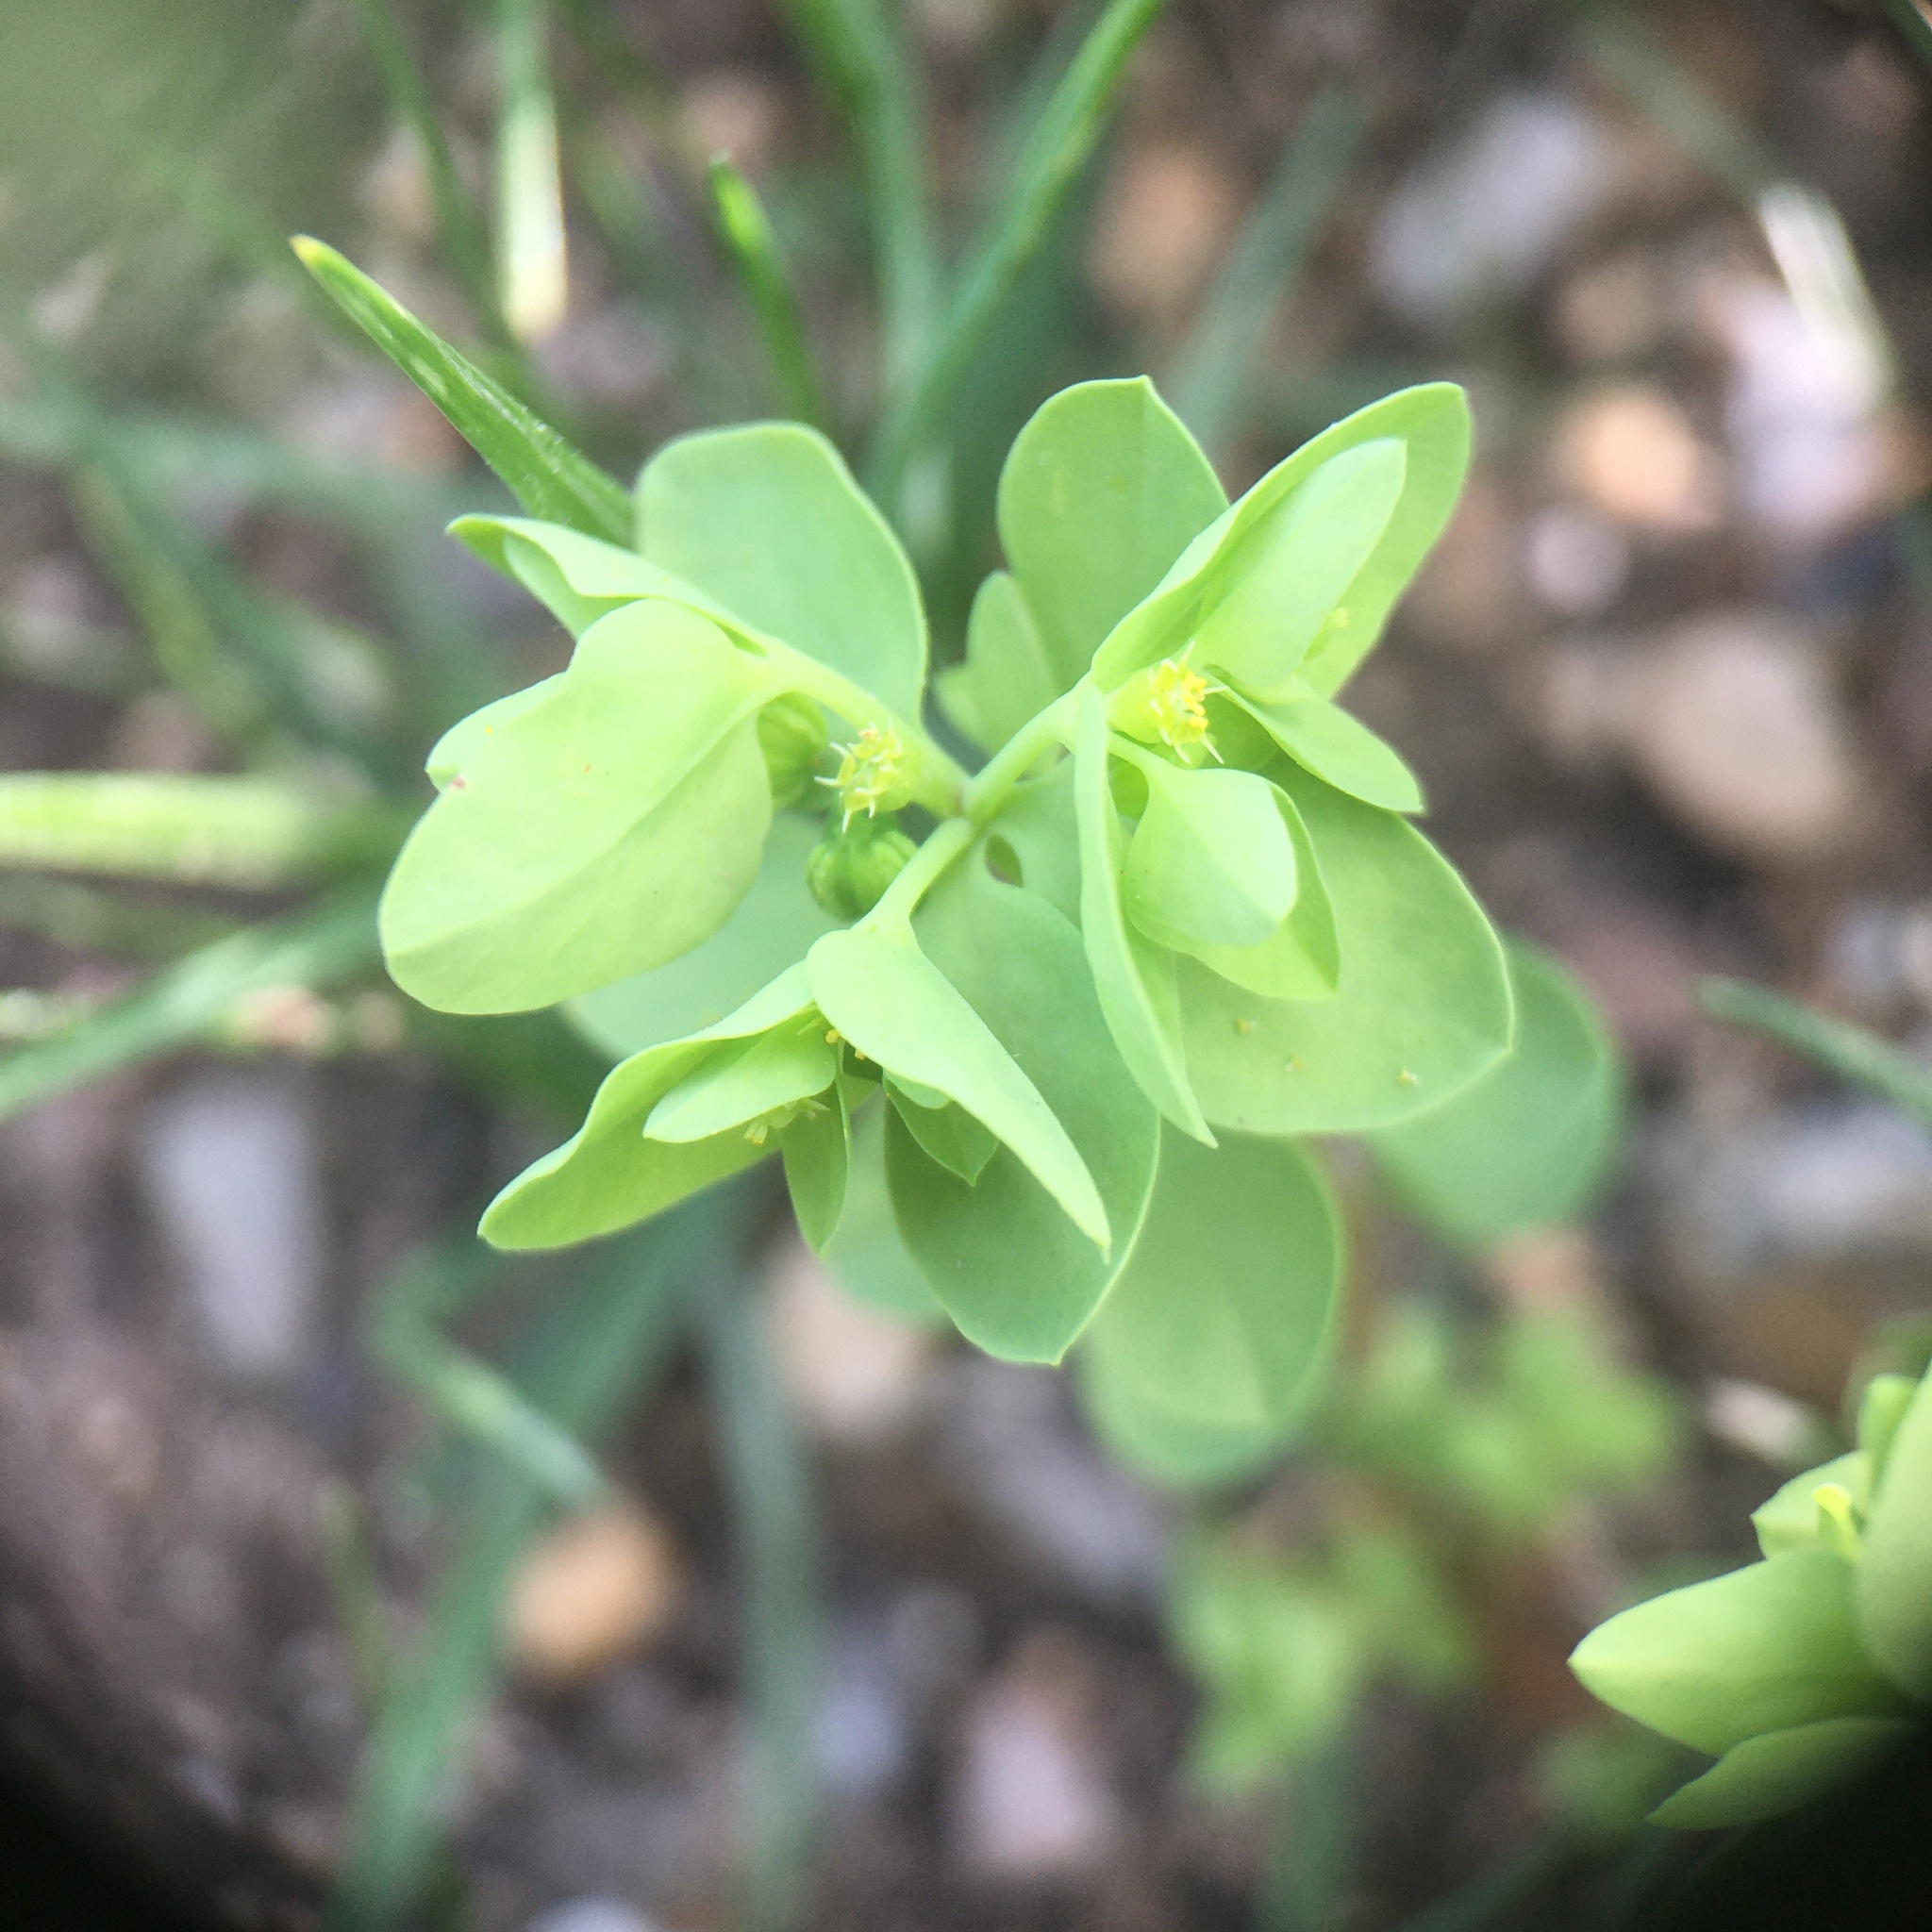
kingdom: Plantae
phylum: Tracheophyta
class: Magnoliopsida
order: Malpighiales
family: Euphorbiaceae
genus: Euphorbia
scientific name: Euphorbia peplus
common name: Petty spurge
